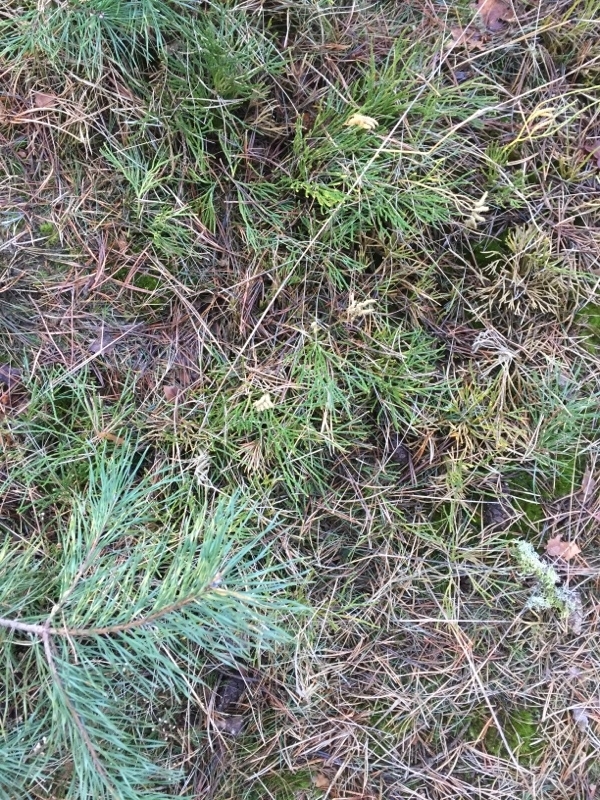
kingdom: Plantae
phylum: Tracheophyta
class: Lycopodiopsida
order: Lycopodiales
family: Lycopodiaceae
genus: Diphasiastrum
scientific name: Diphasiastrum tristachyum
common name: Blue ground-cedar
